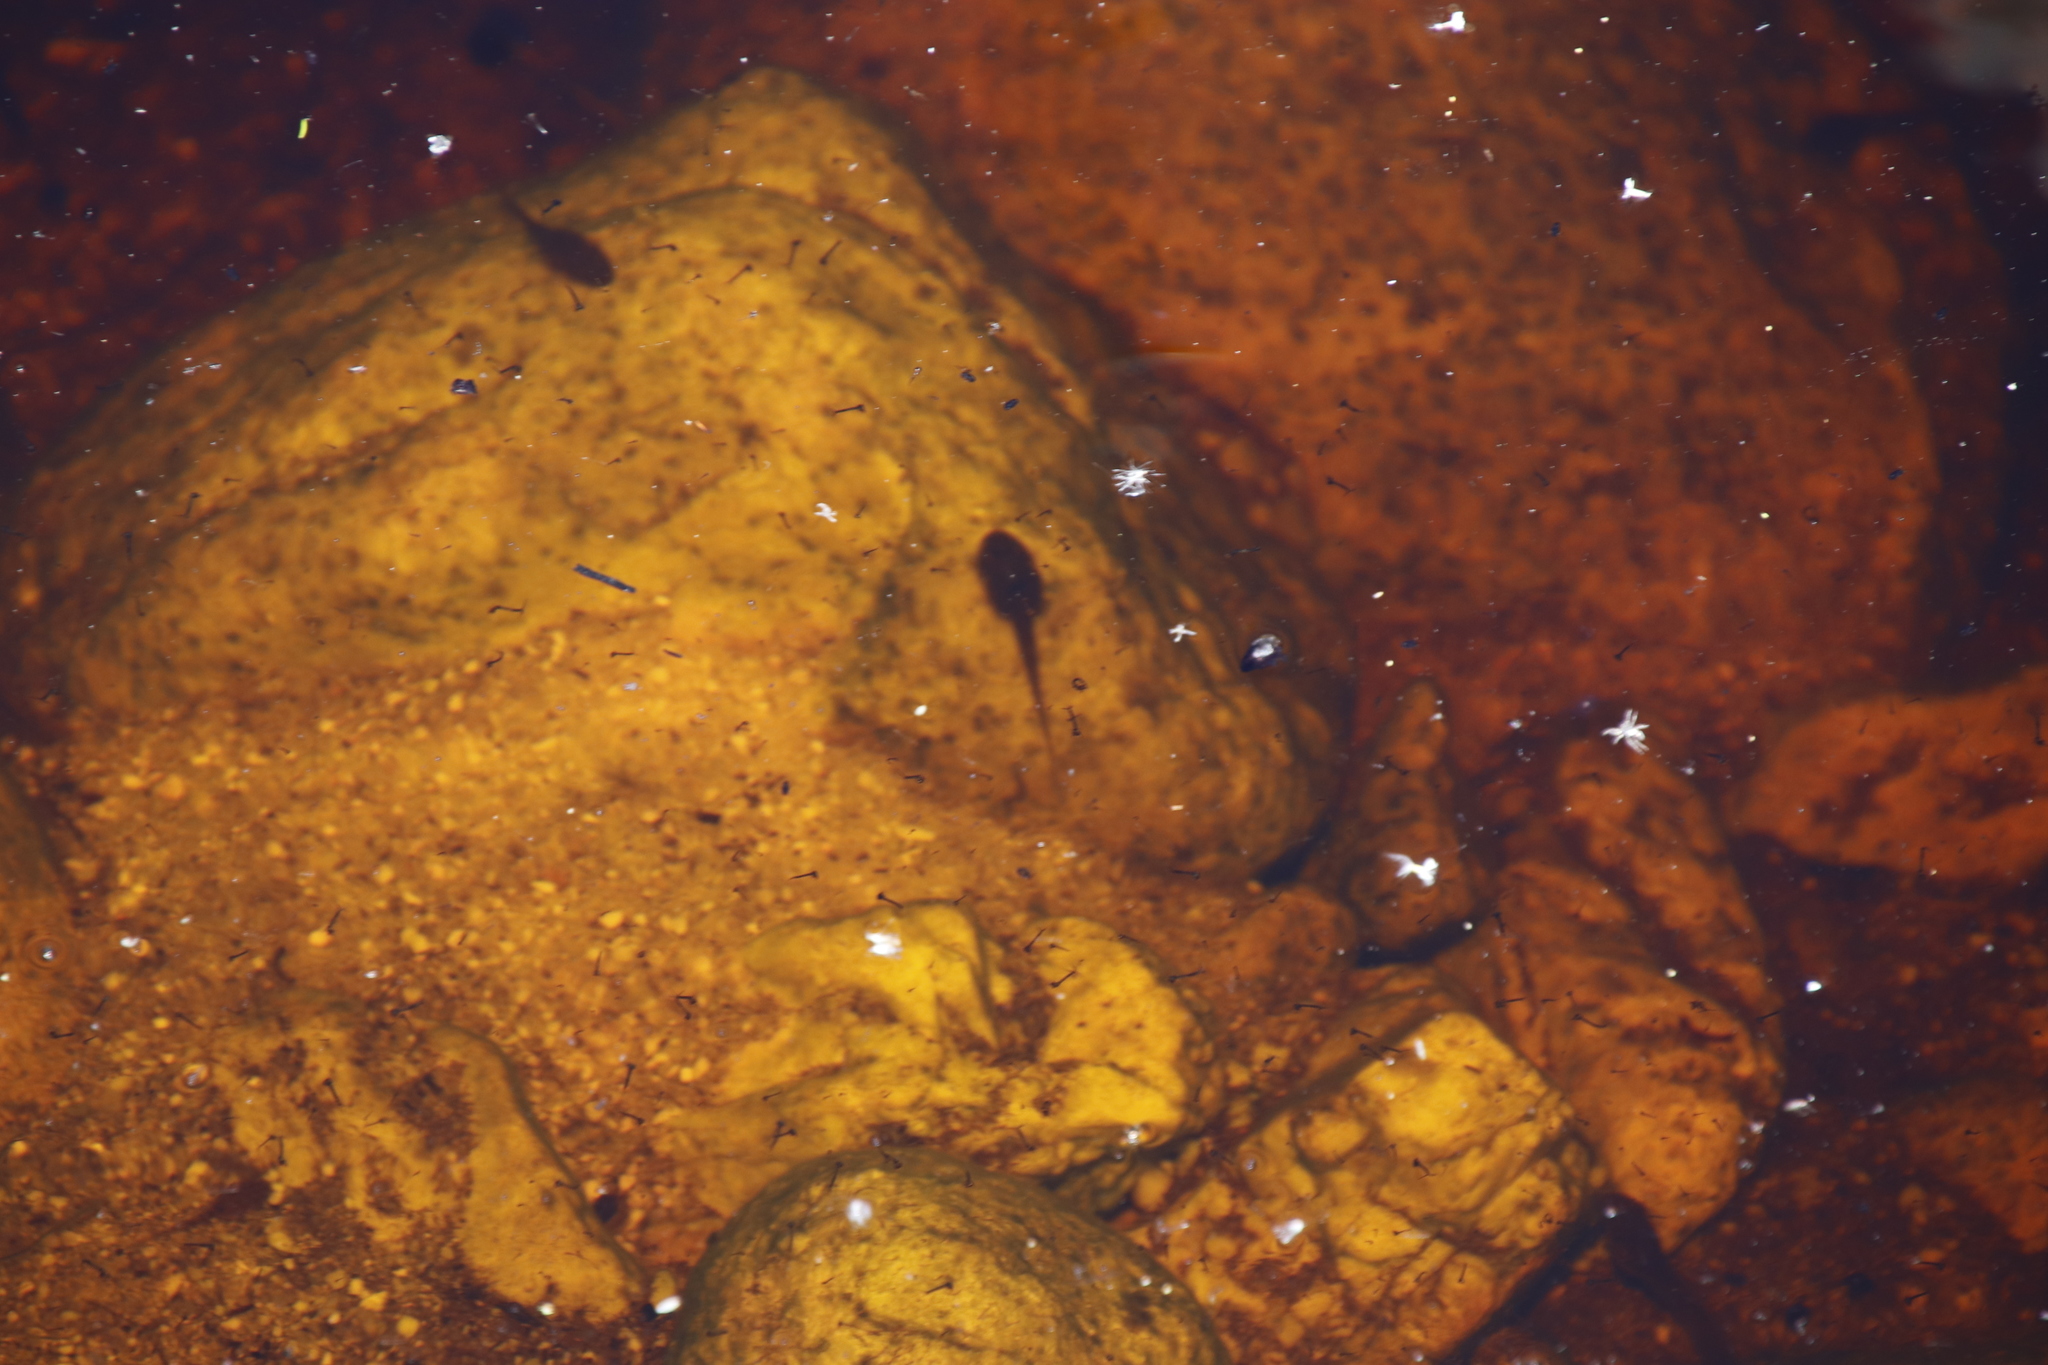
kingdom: Animalia
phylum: Chordata
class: Amphibia
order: Anura
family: Pyxicephalidae
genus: Amietia
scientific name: Amietia fuscigula
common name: Cape rana
